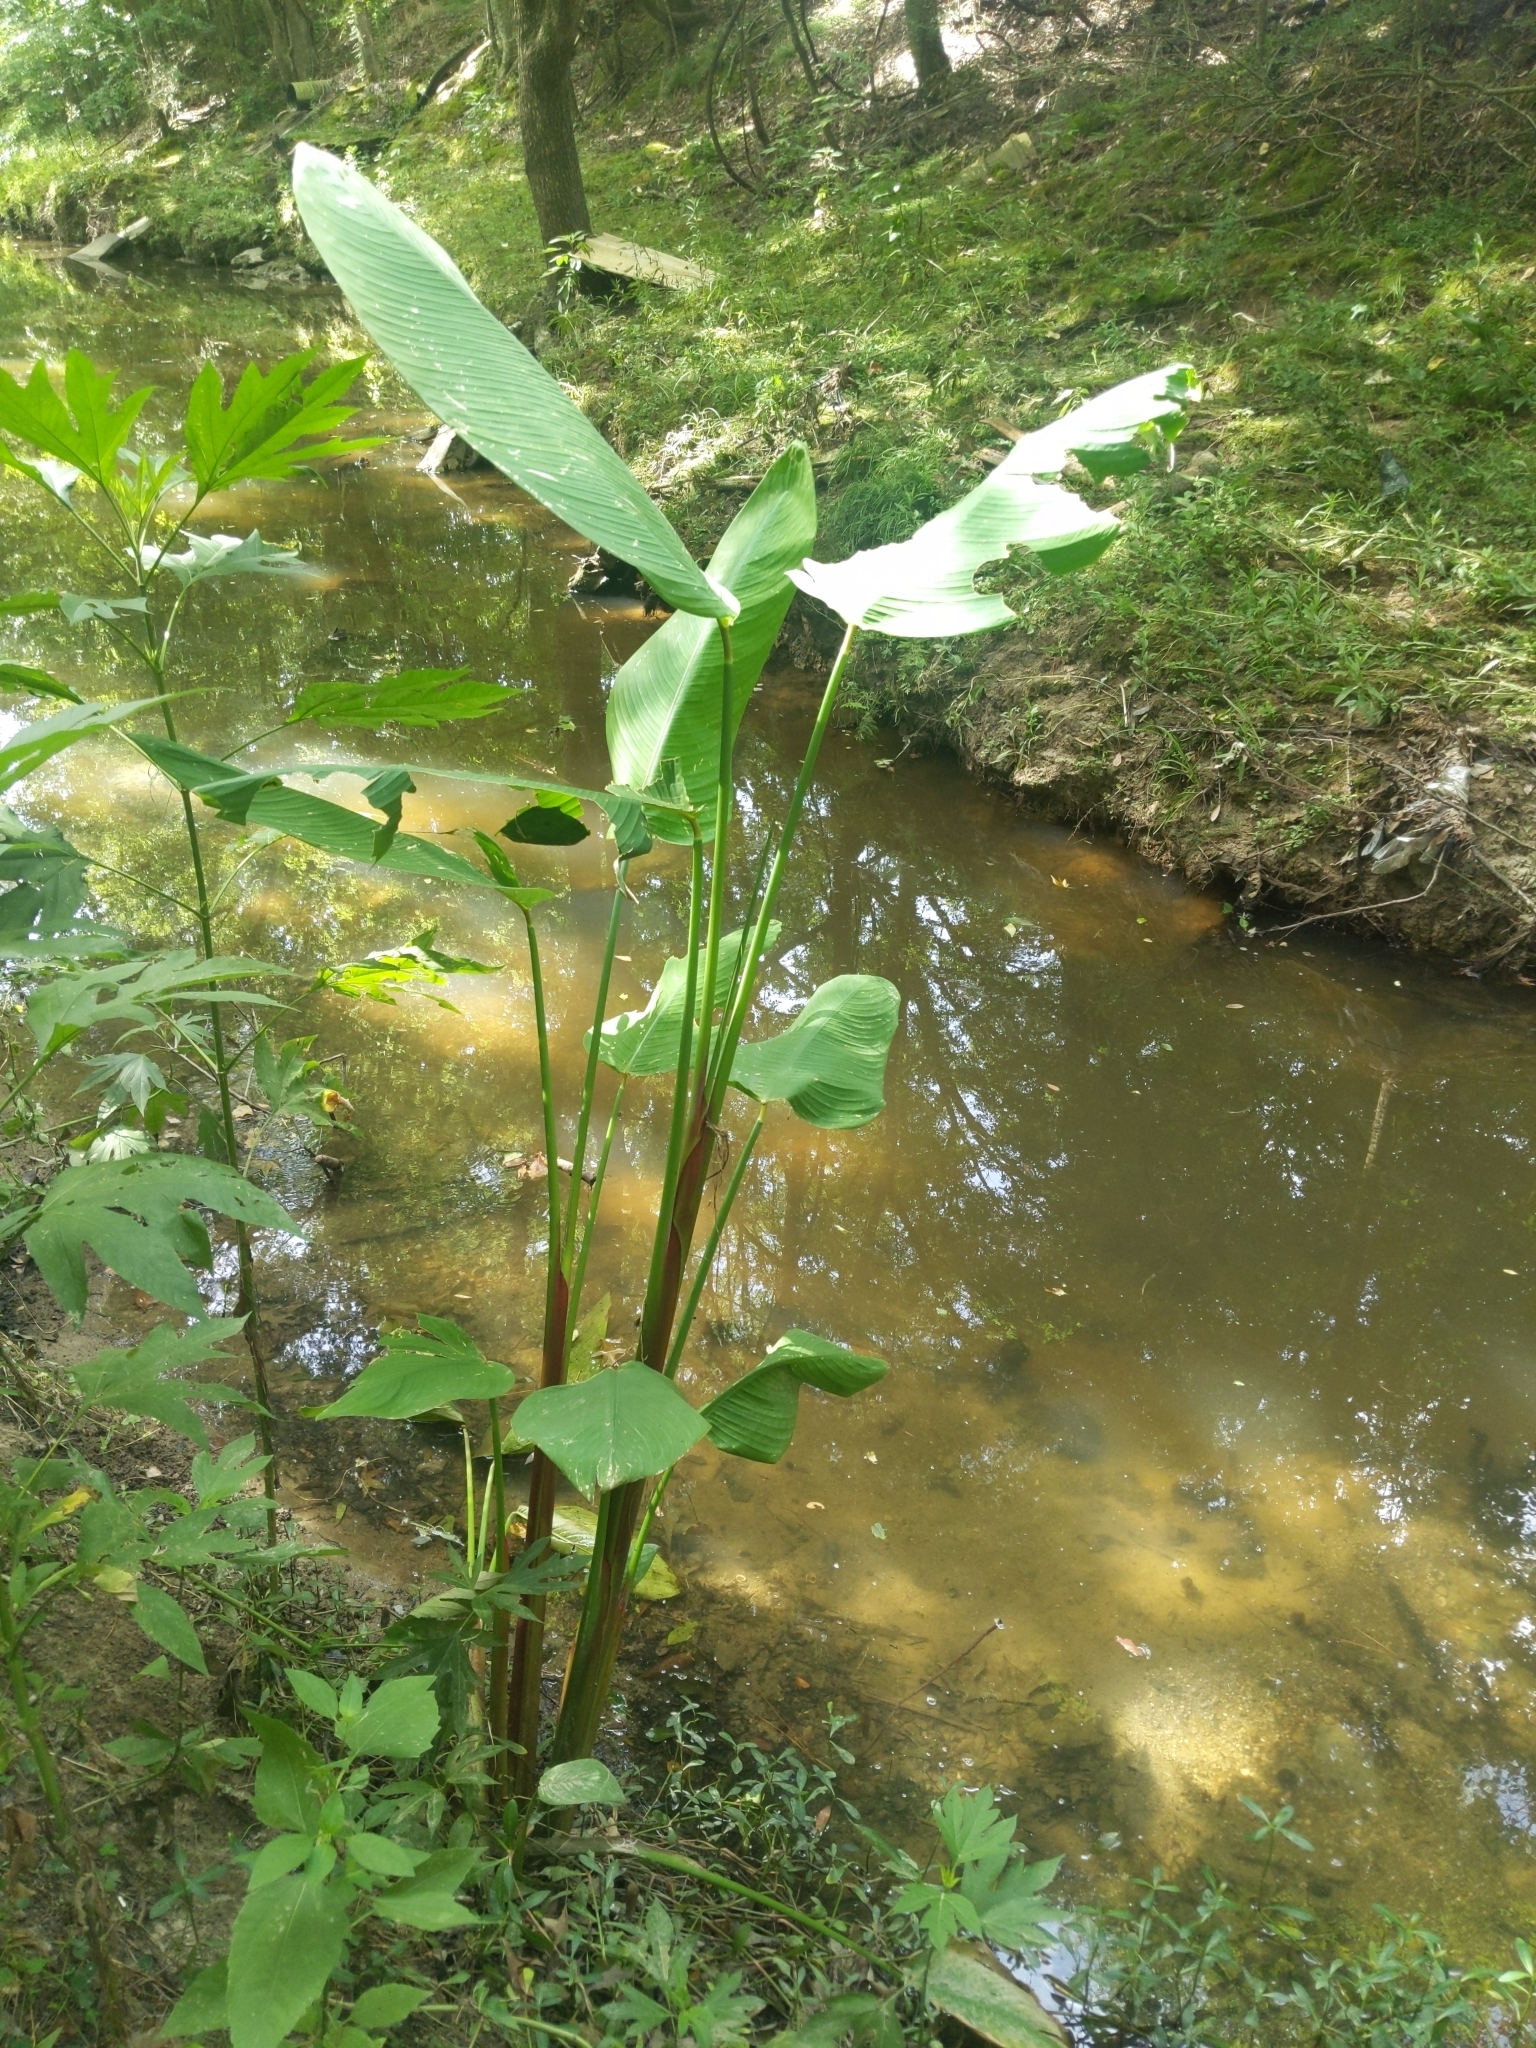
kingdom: Plantae
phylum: Tracheophyta
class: Liliopsida
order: Zingiberales
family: Marantaceae
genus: Thalia
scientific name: Thalia dealbata
